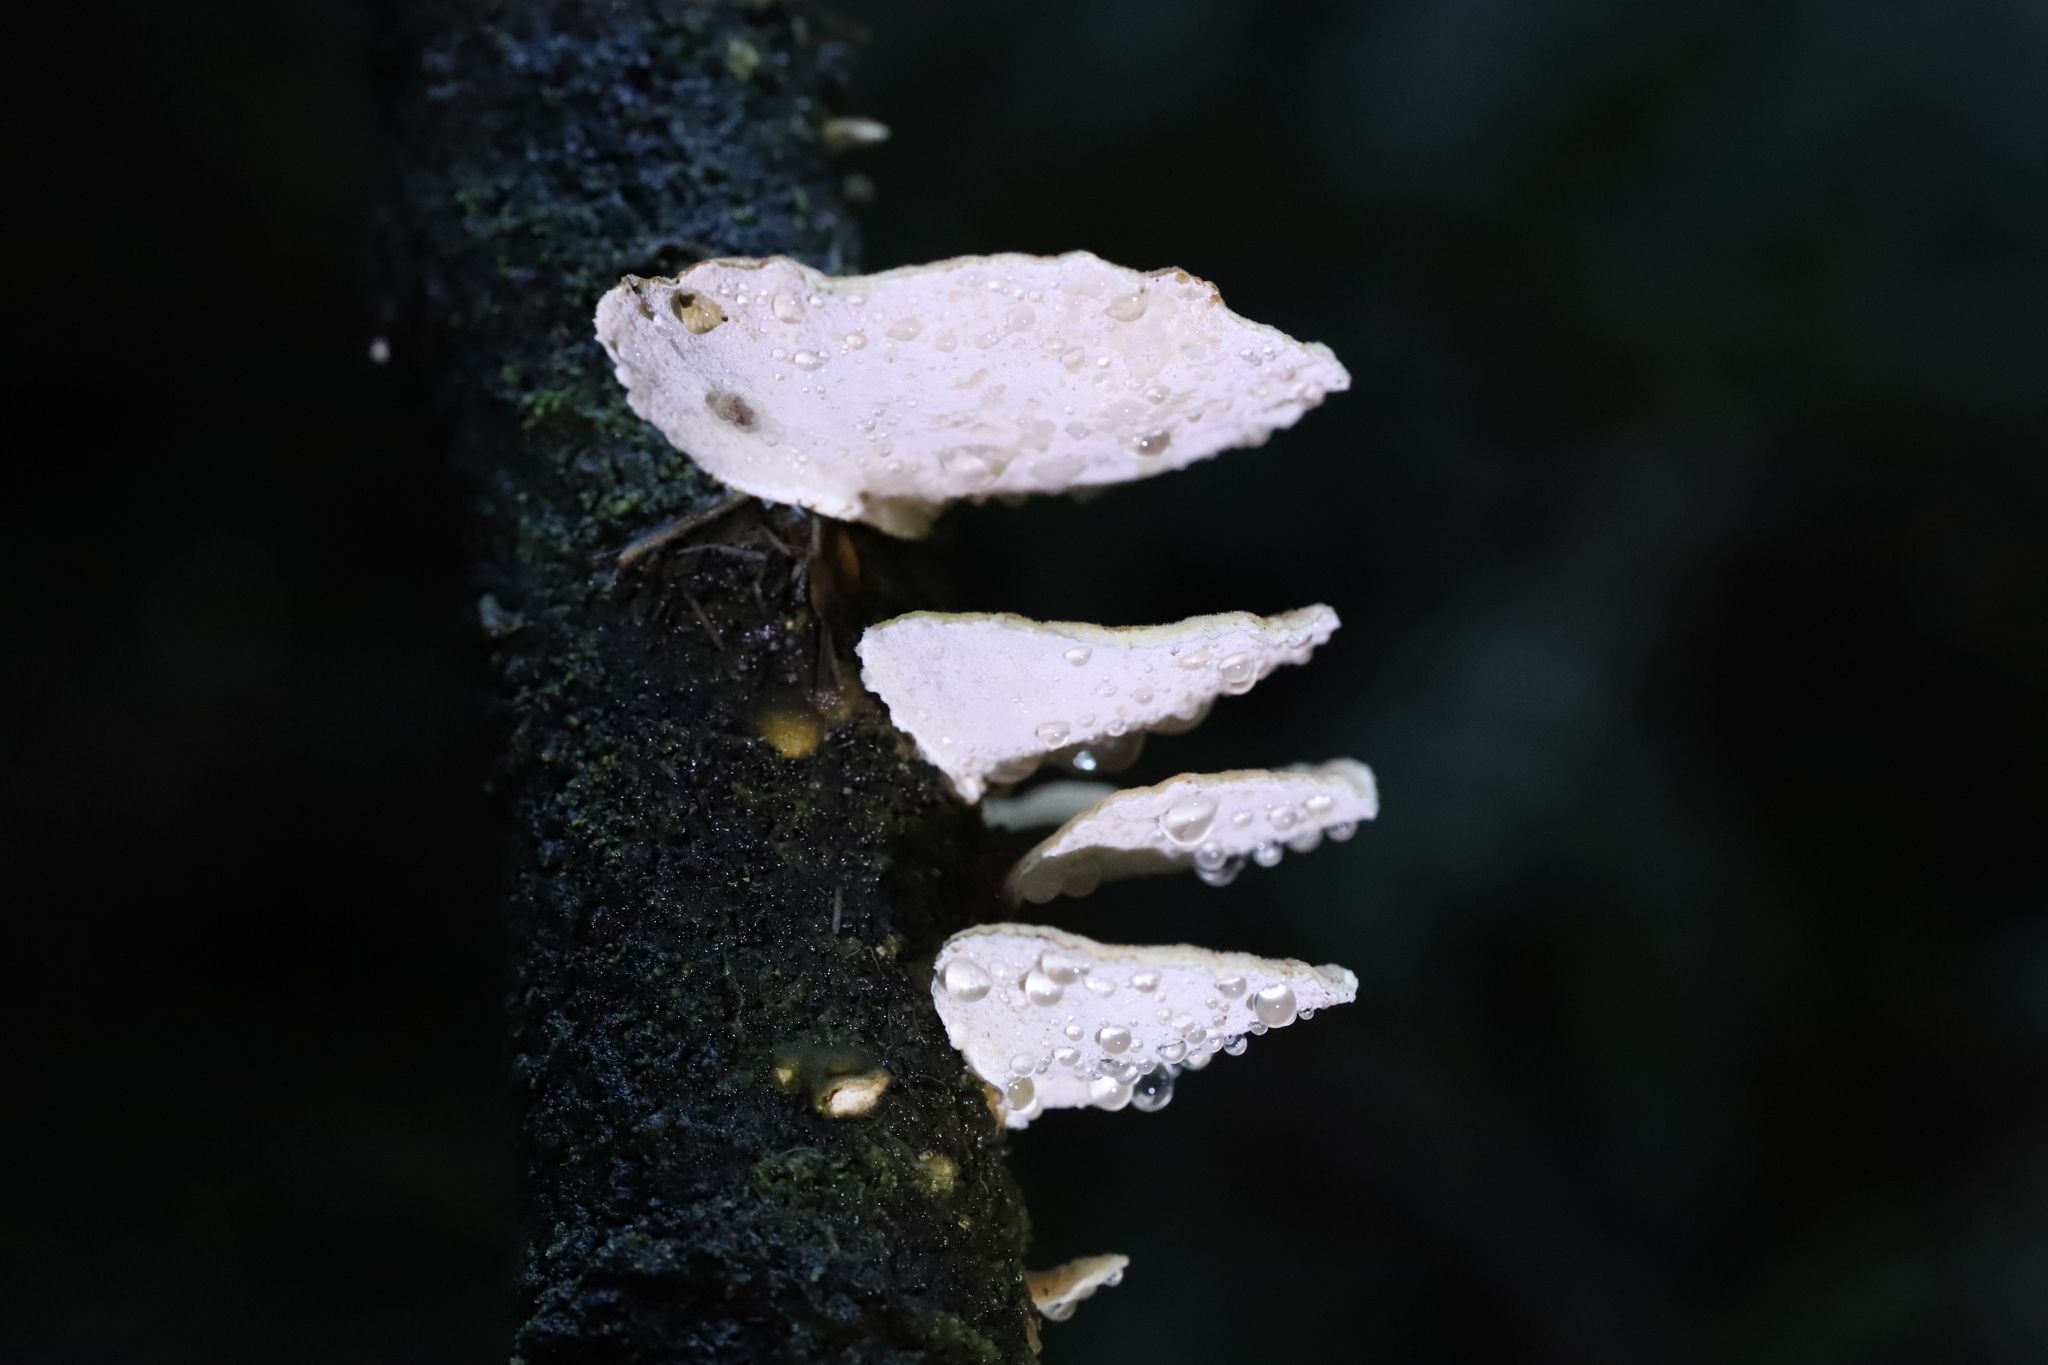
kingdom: Fungi
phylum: Basidiomycota
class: Agaricomycetes
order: Polyporales
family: Polyporaceae
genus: Trametes
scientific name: Trametes versicolor
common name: Turkeytail
